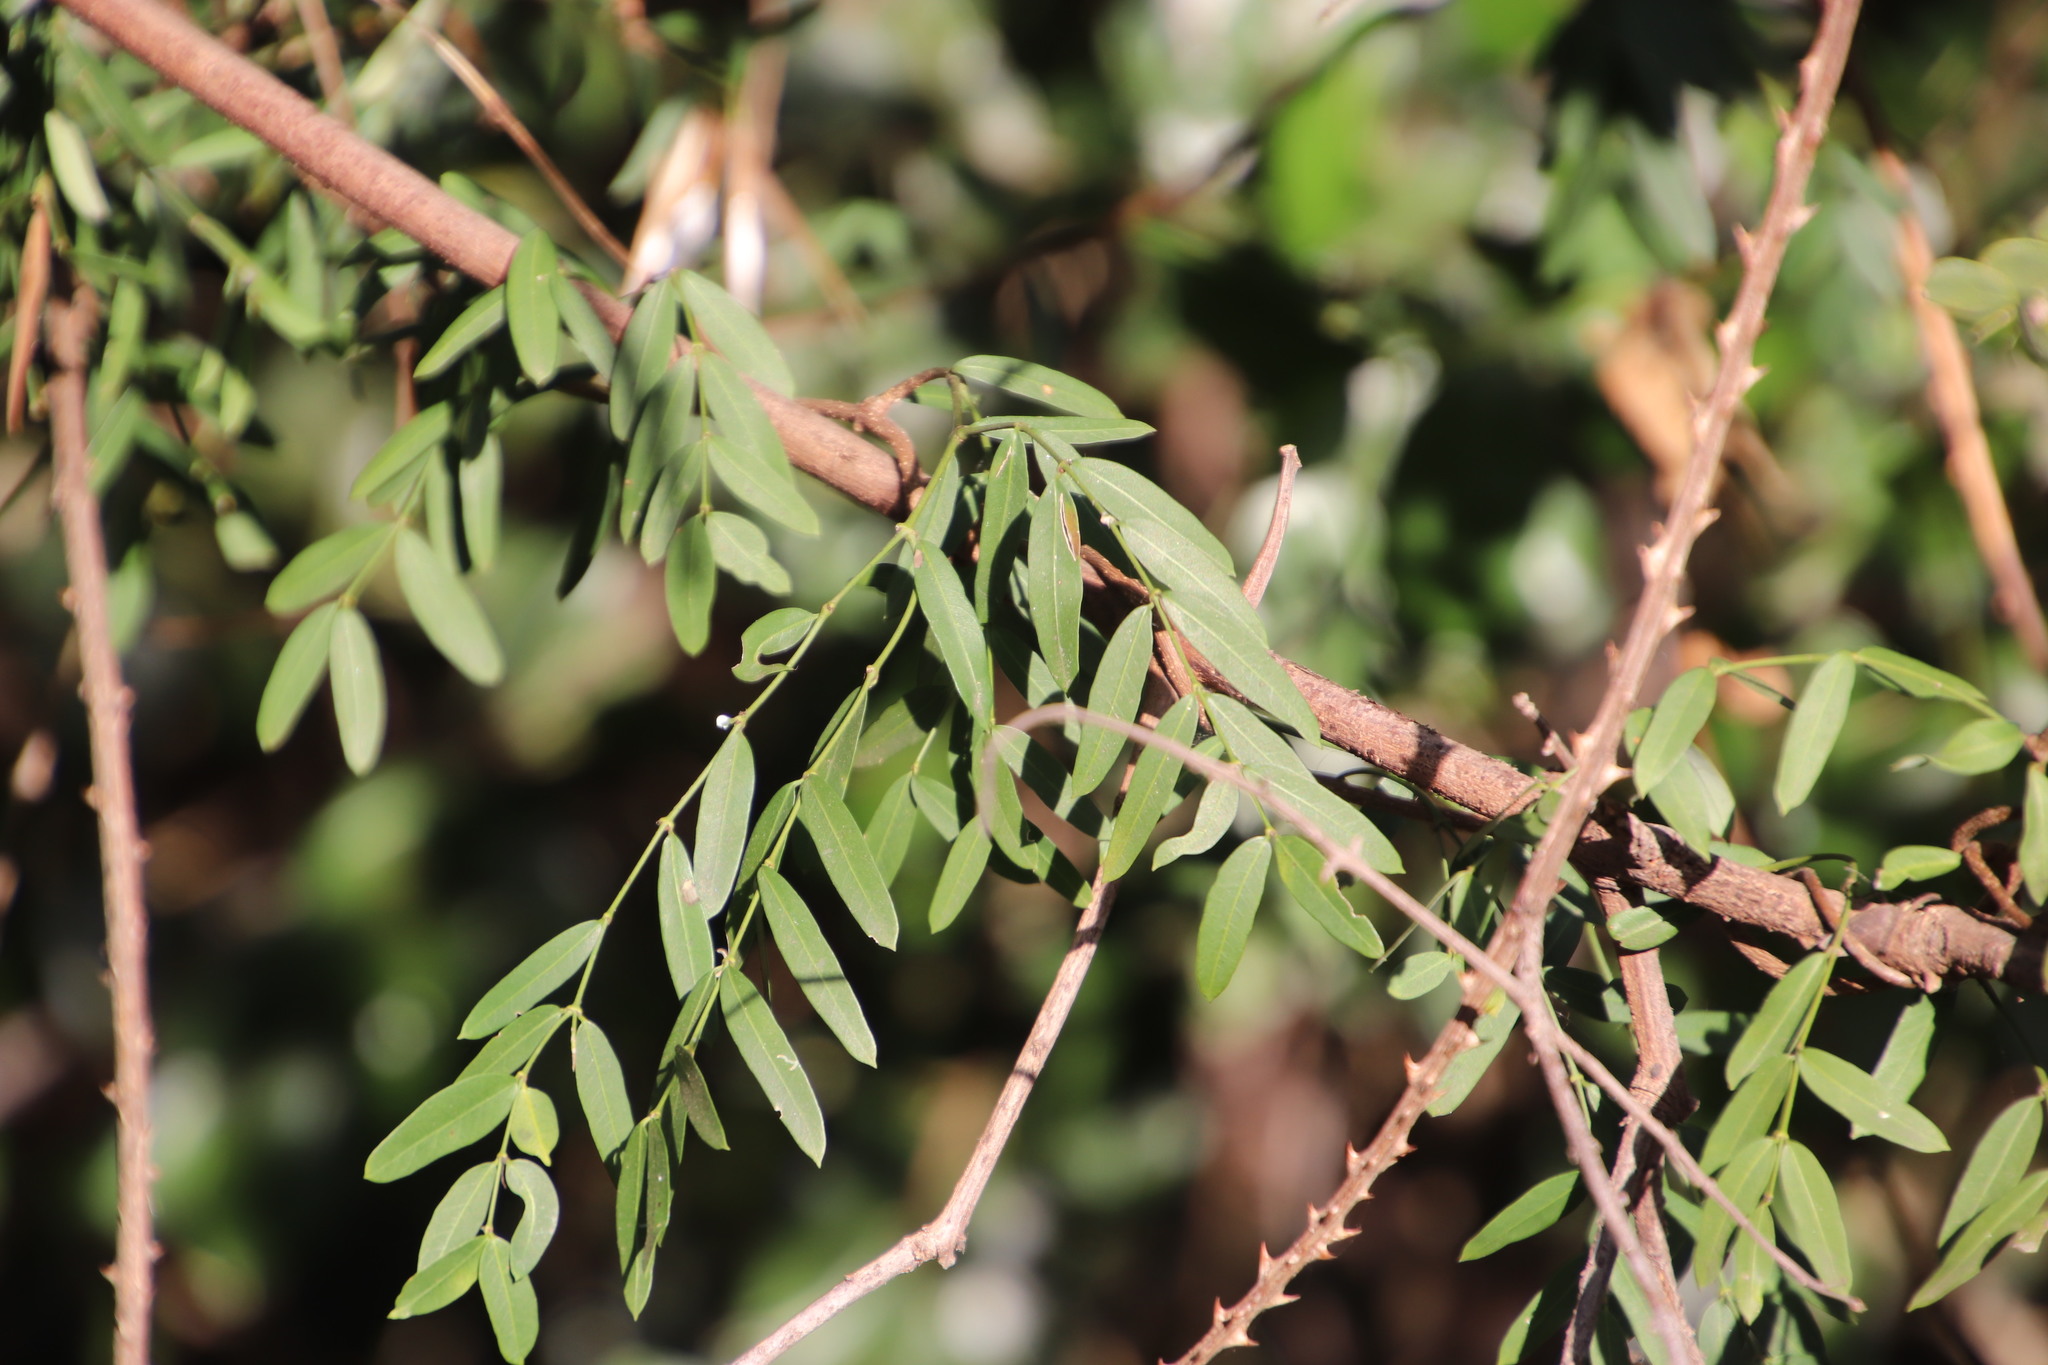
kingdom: Plantae
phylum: Tracheophyta
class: Magnoliopsida
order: Gentianales
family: Apocynaceae
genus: Secamone
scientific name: Secamone filiformis
